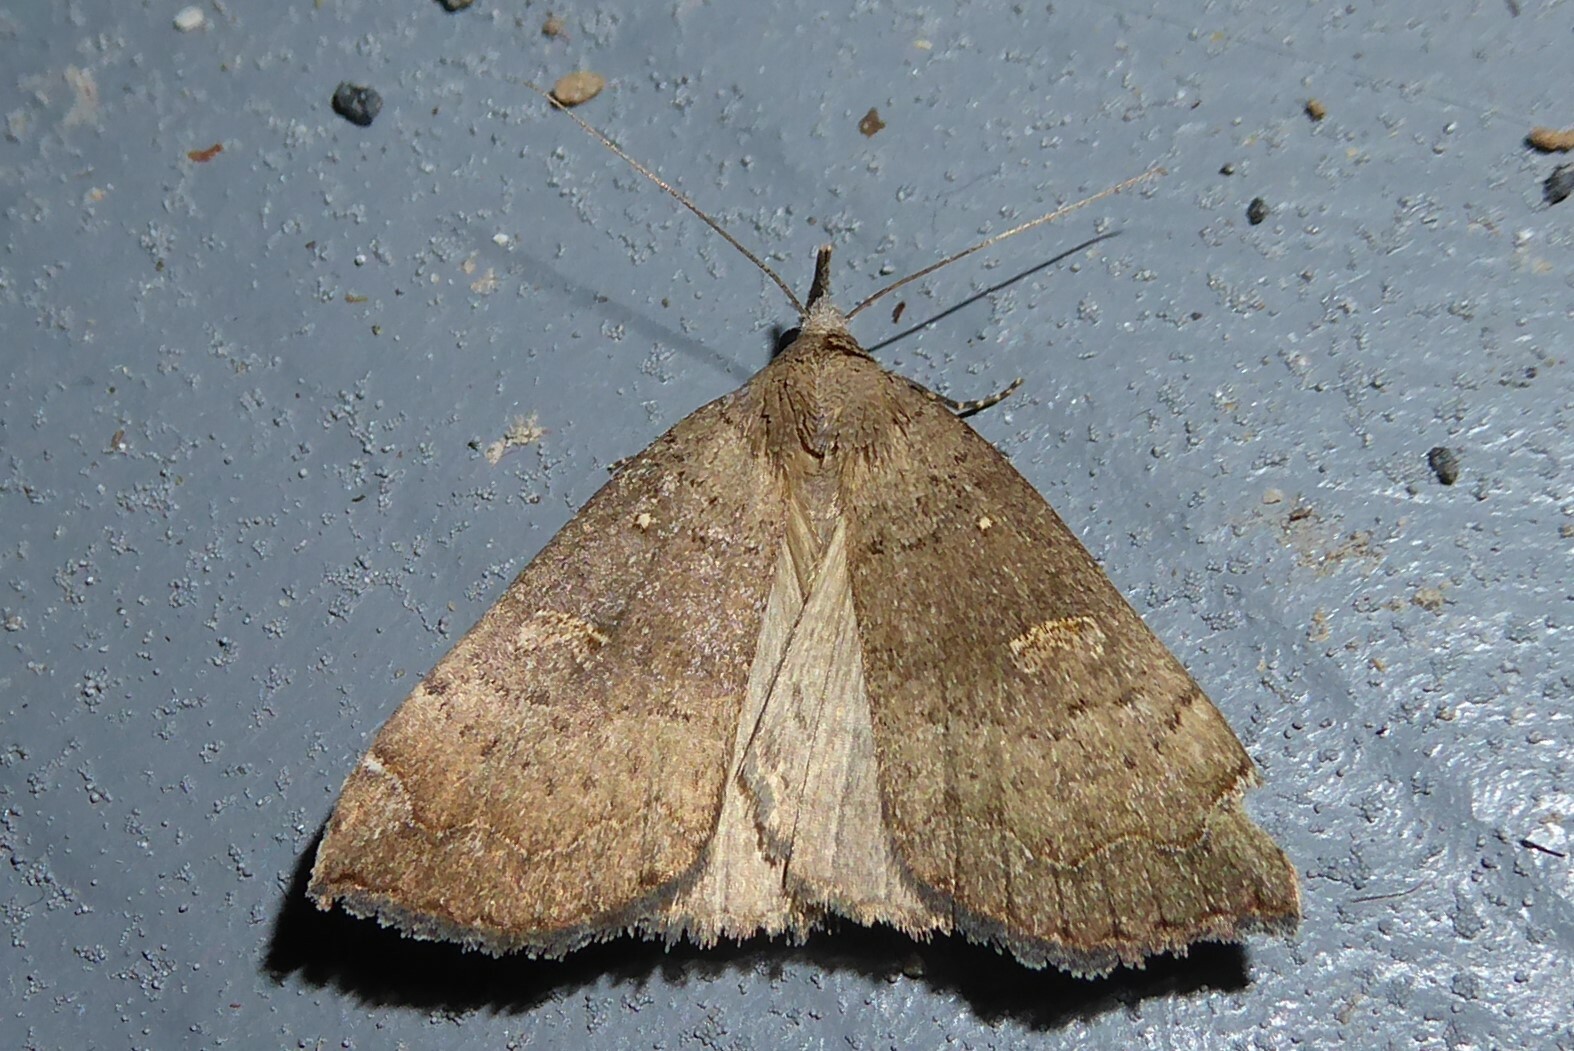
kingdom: Animalia
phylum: Arthropoda
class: Insecta
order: Lepidoptera
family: Erebidae
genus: Rhapsa
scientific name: Rhapsa scotosialis
